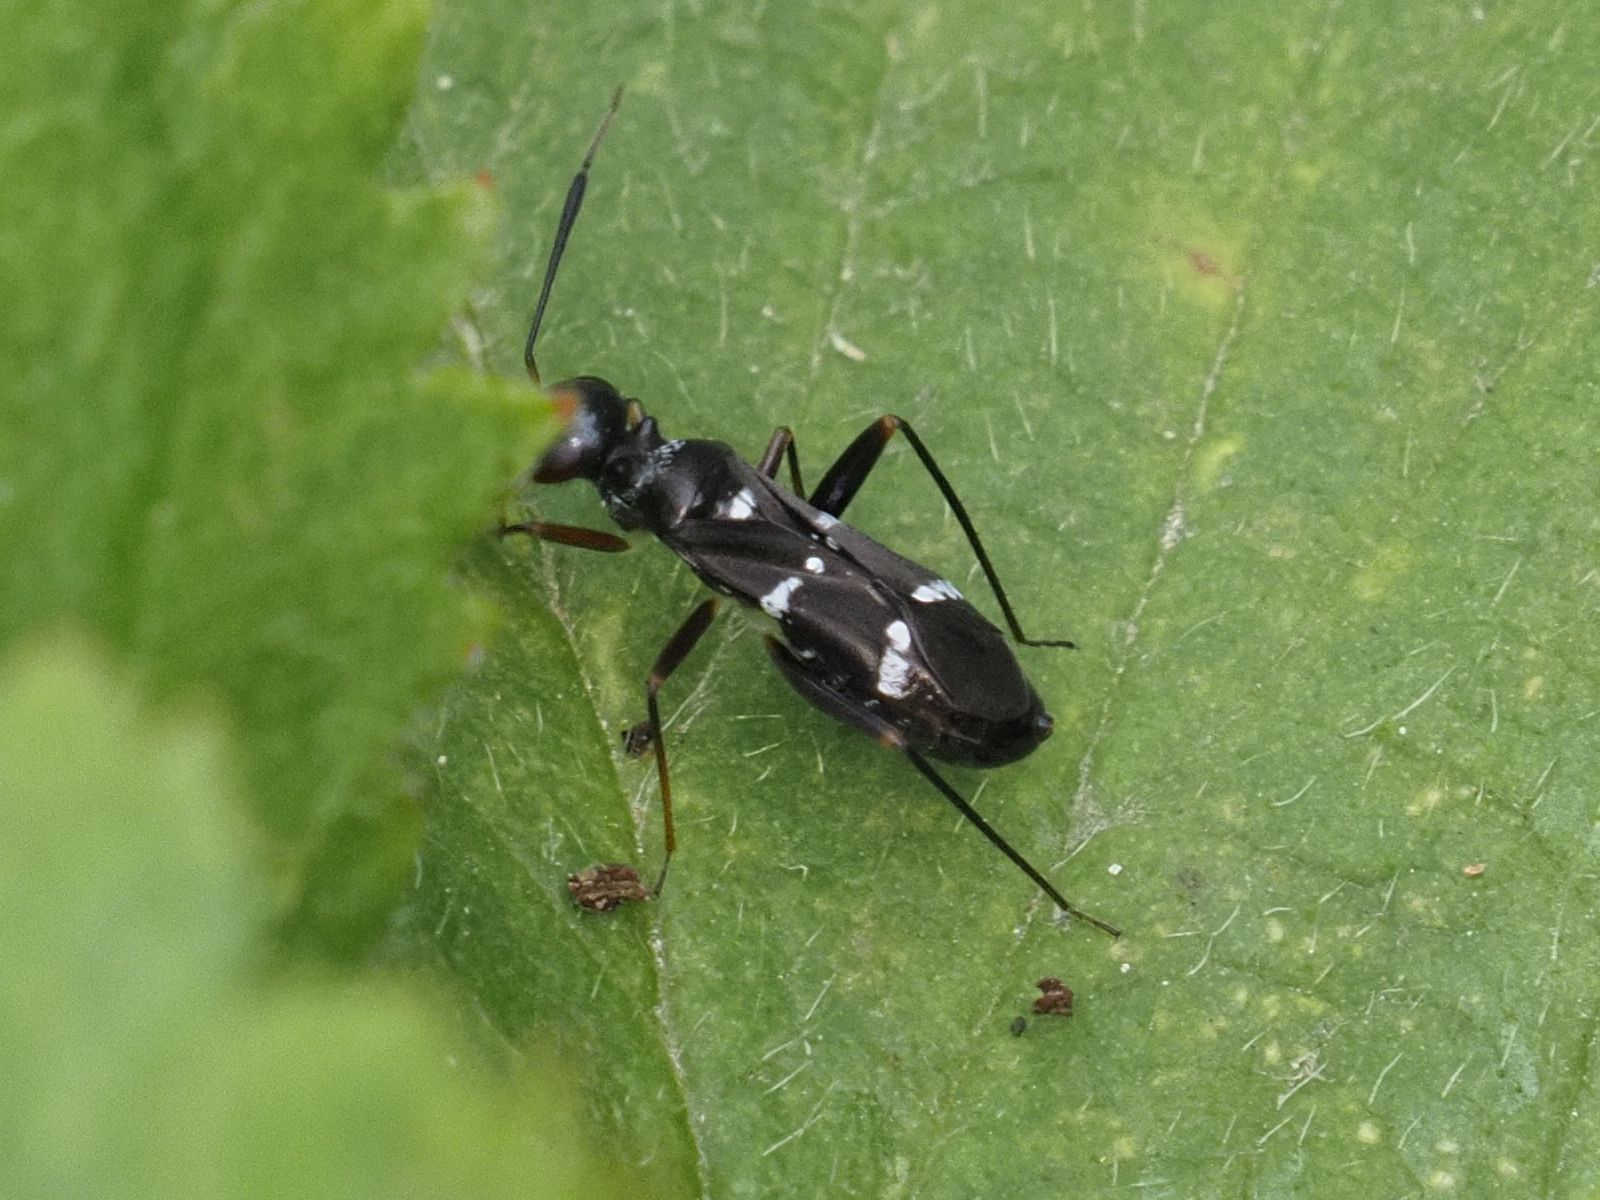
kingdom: Animalia
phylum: Arthropoda
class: Insecta
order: Hemiptera
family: Miridae
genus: Globiceps
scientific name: Globiceps sphaegiformis
